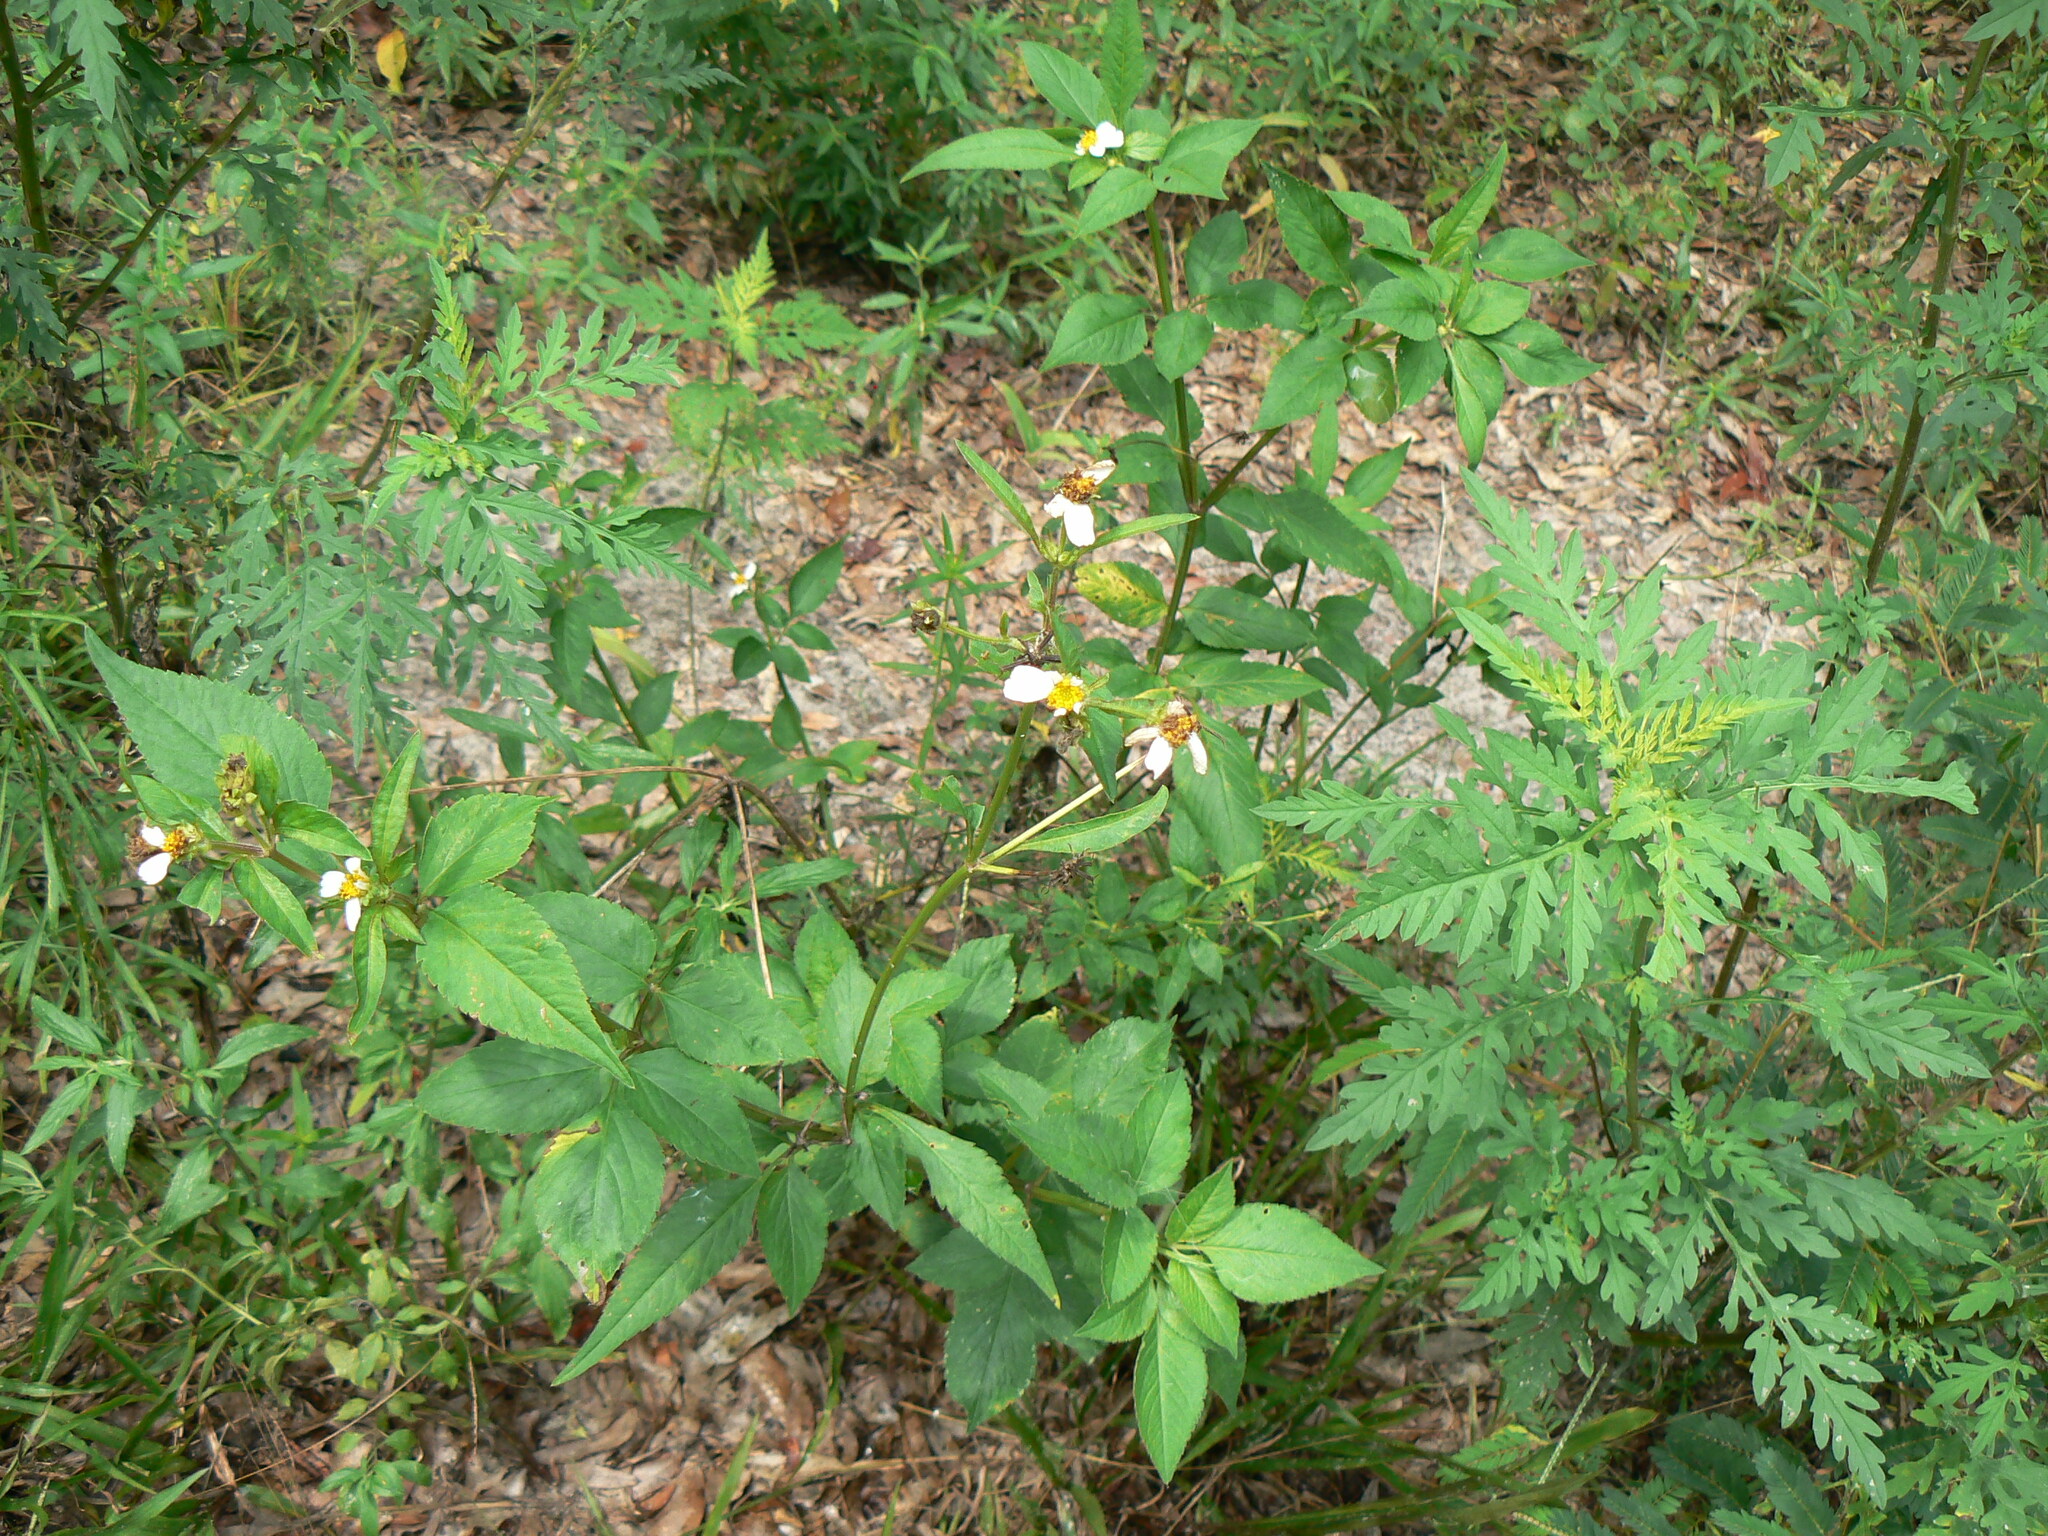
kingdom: Plantae
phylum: Tracheophyta
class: Magnoliopsida
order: Asterales
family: Asteraceae
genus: Bidens
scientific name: Bidens alba
